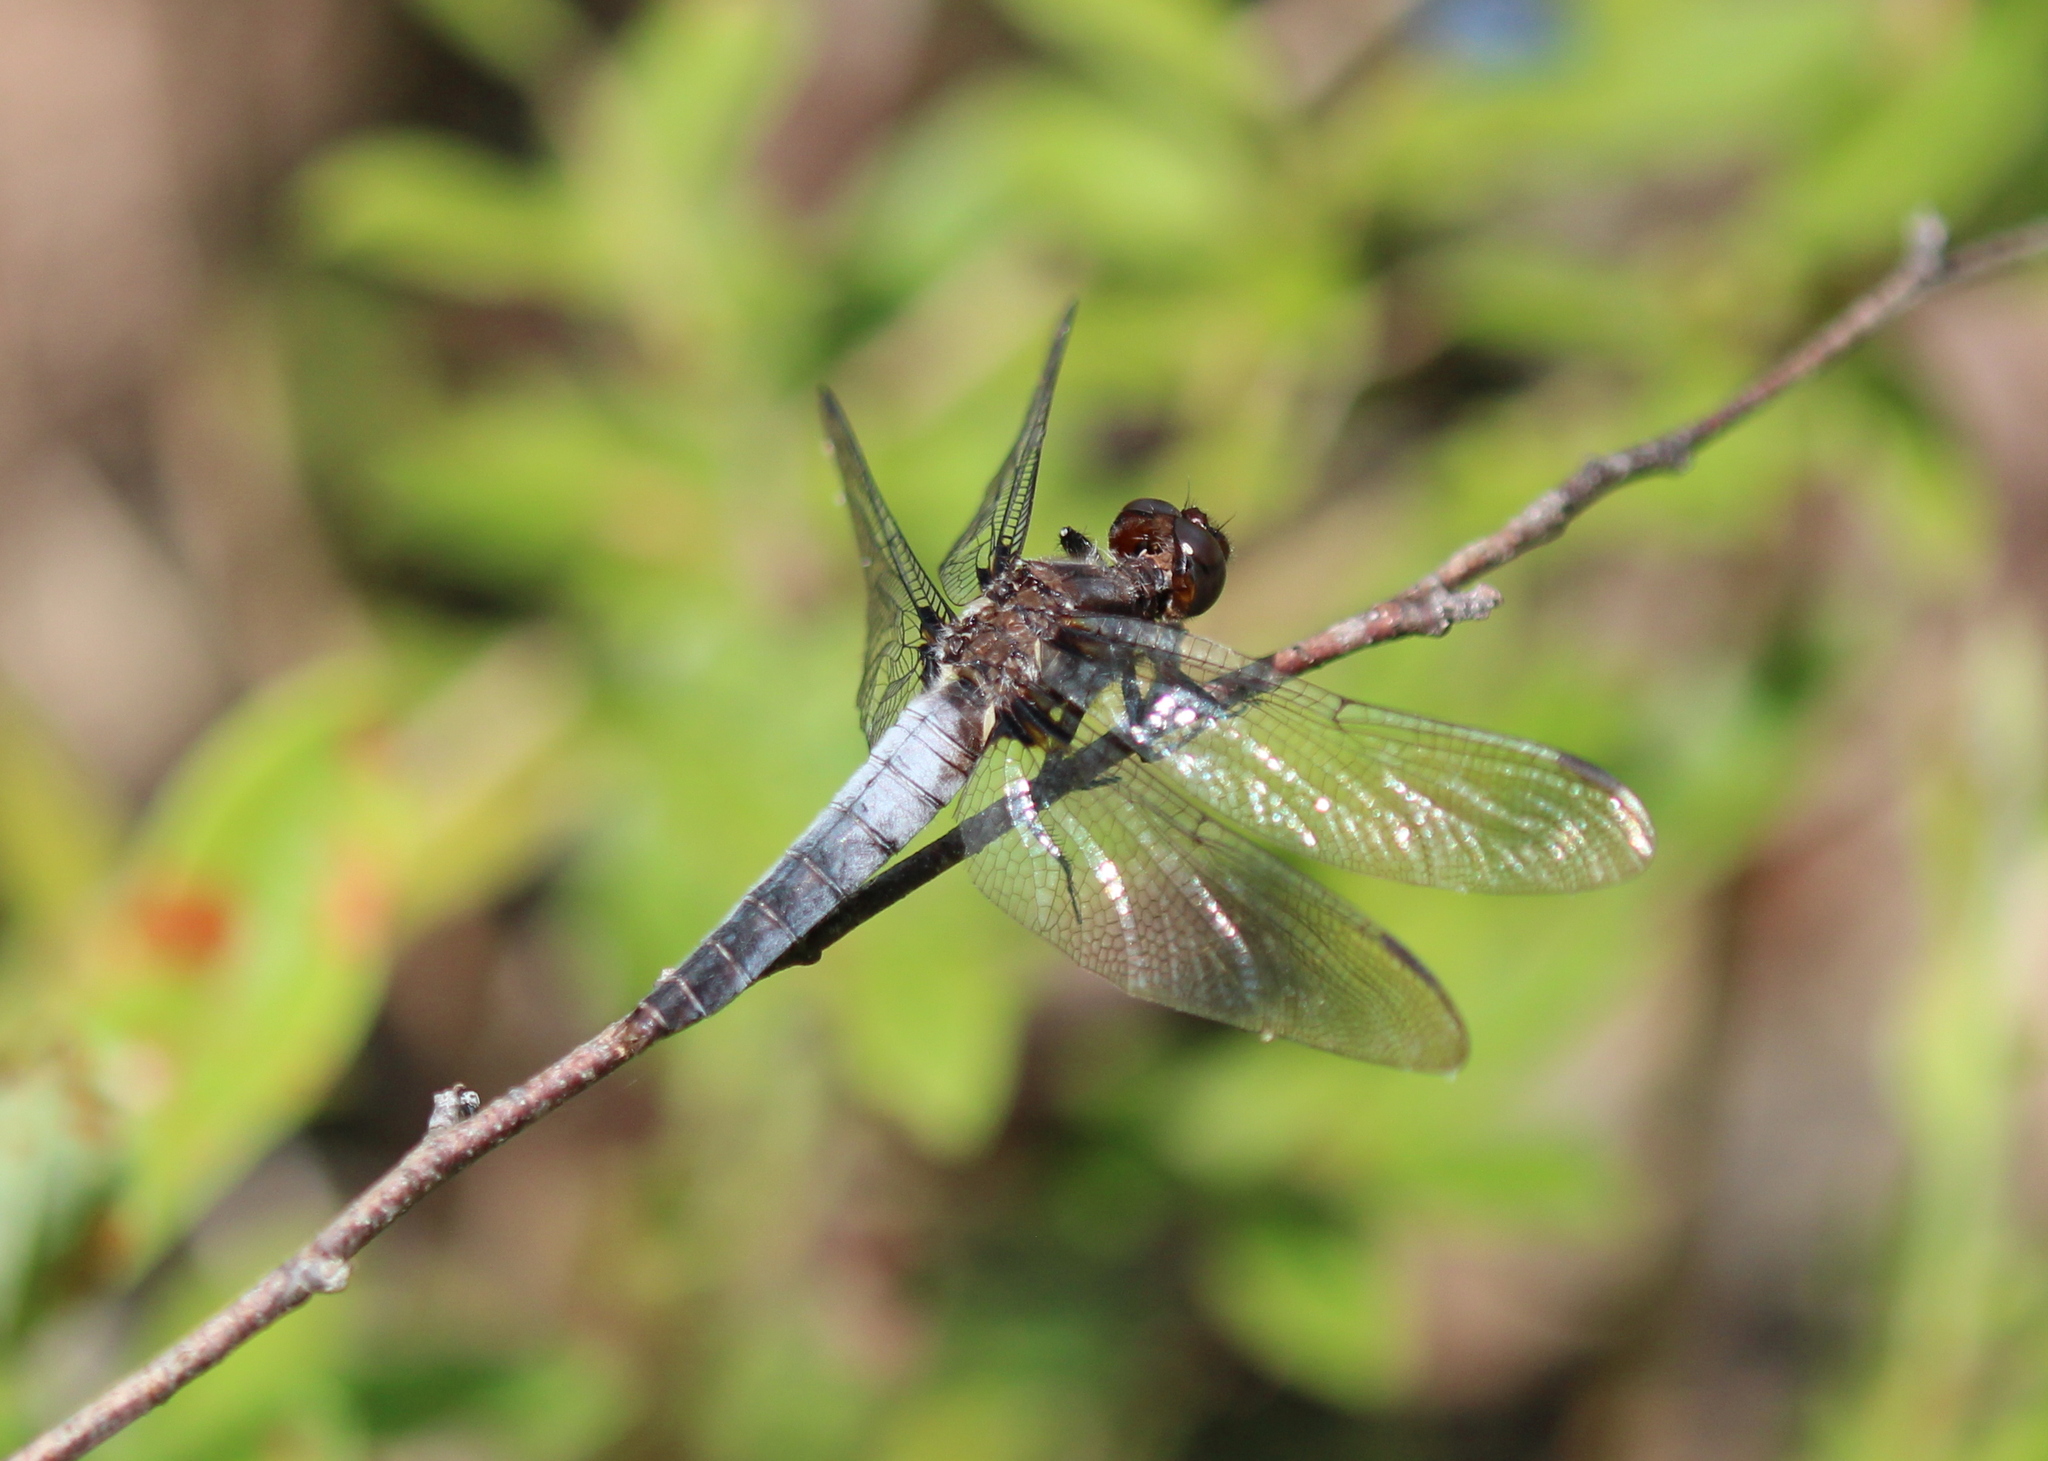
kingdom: Animalia
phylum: Arthropoda
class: Insecta
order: Odonata
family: Libellulidae
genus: Ladona
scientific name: Ladona julia
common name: Chalk-fronted corporal
